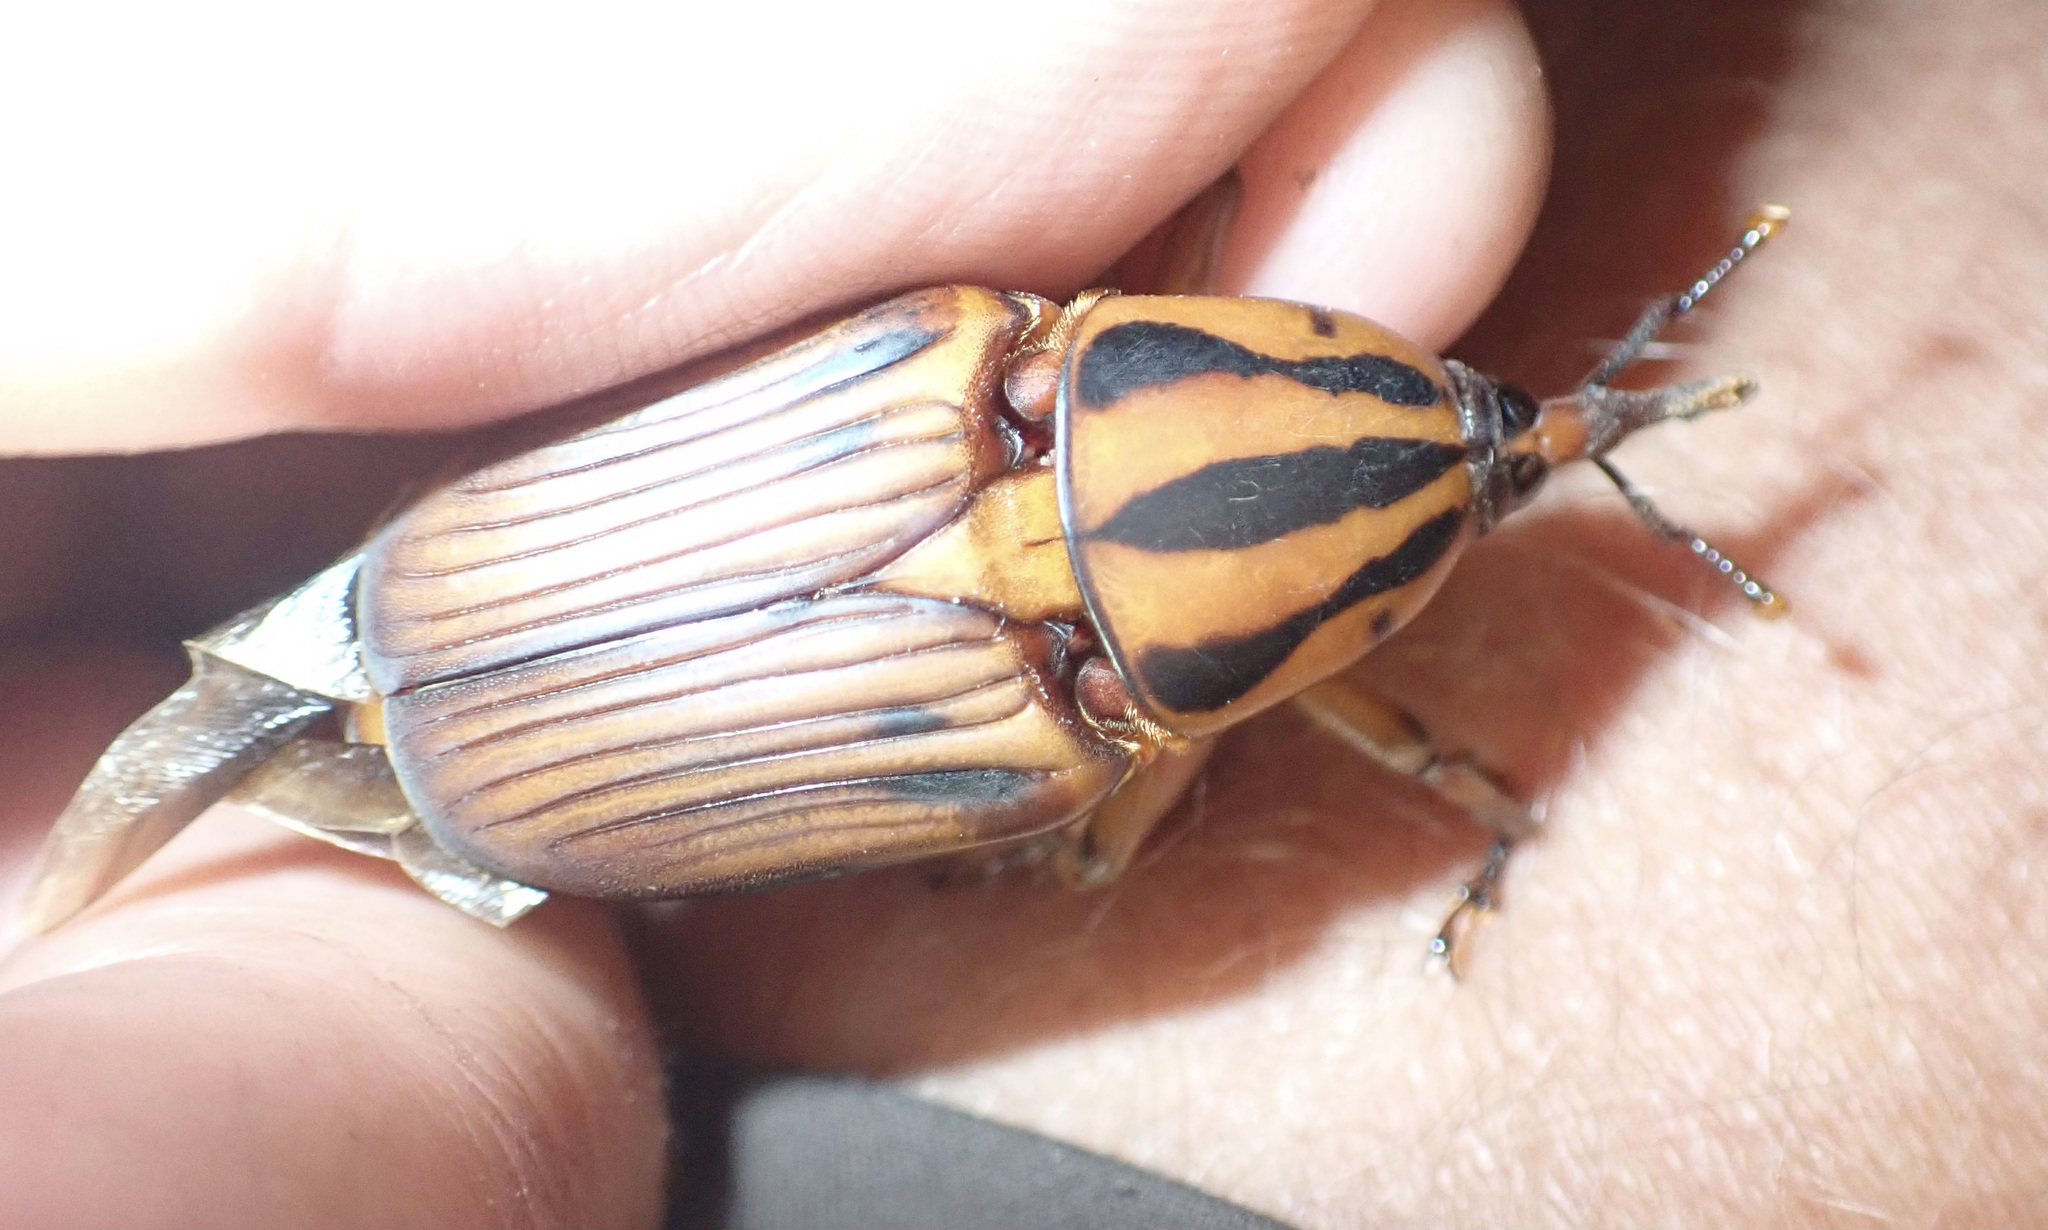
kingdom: Animalia
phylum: Arthropoda
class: Insecta
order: Coleoptera
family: Dryophthoridae
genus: Rhynchophorus
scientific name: Rhynchophorus phoenicis
